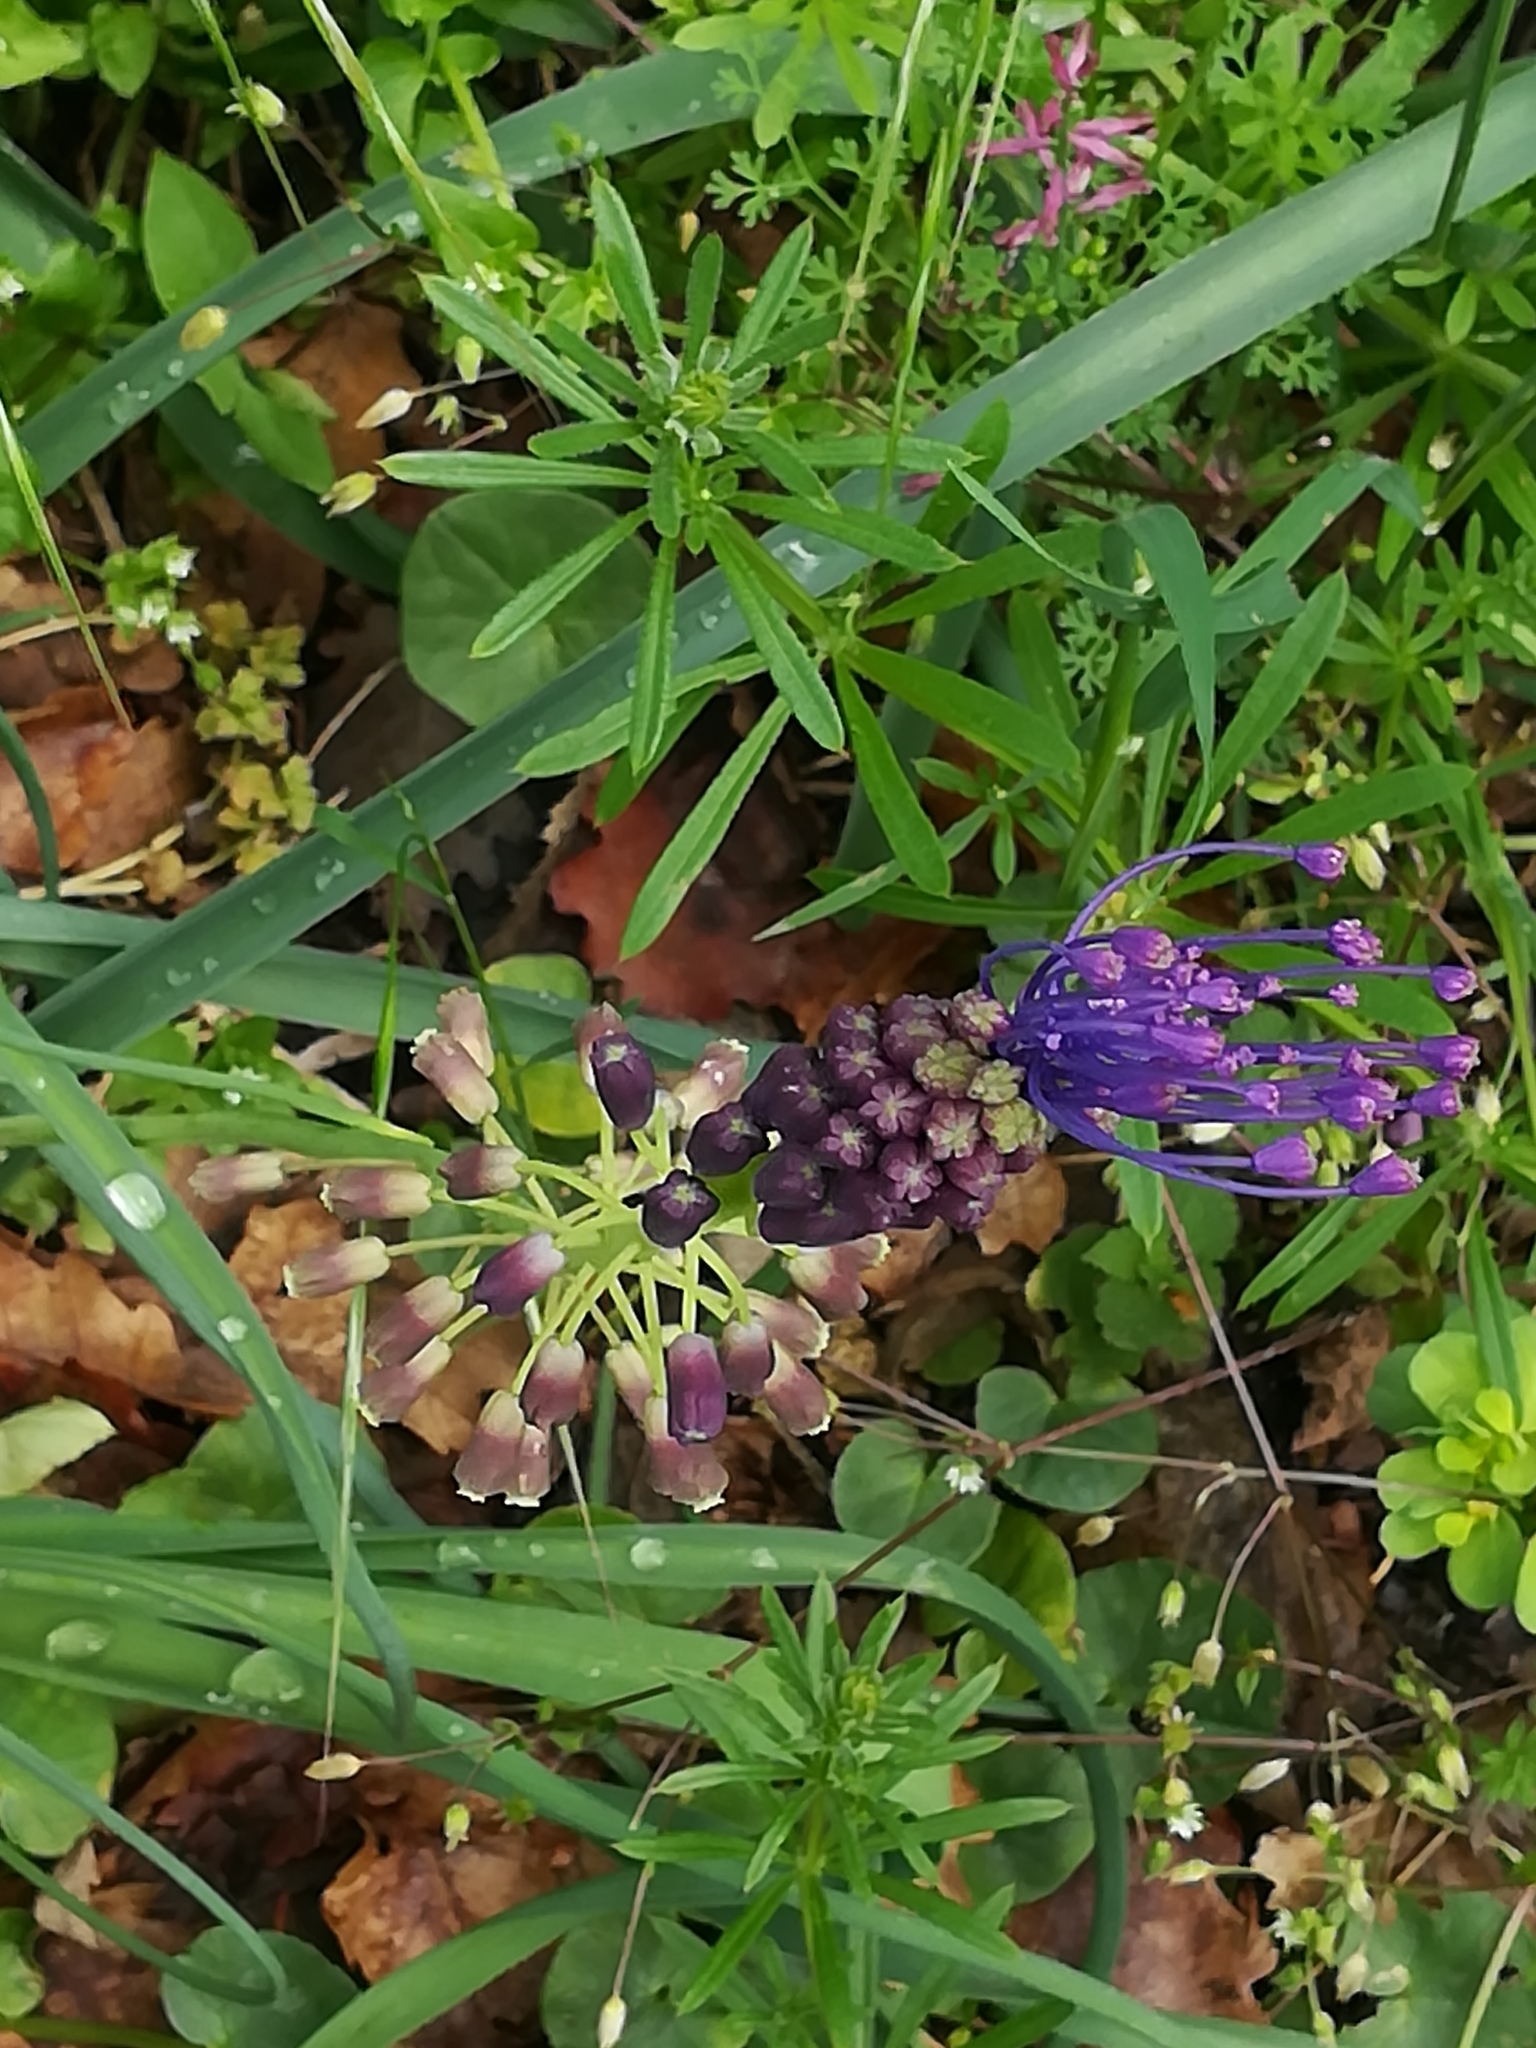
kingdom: Plantae
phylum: Tracheophyta
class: Liliopsida
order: Asparagales
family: Asparagaceae
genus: Muscari
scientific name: Muscari comosum
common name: Tassel hyacinth
